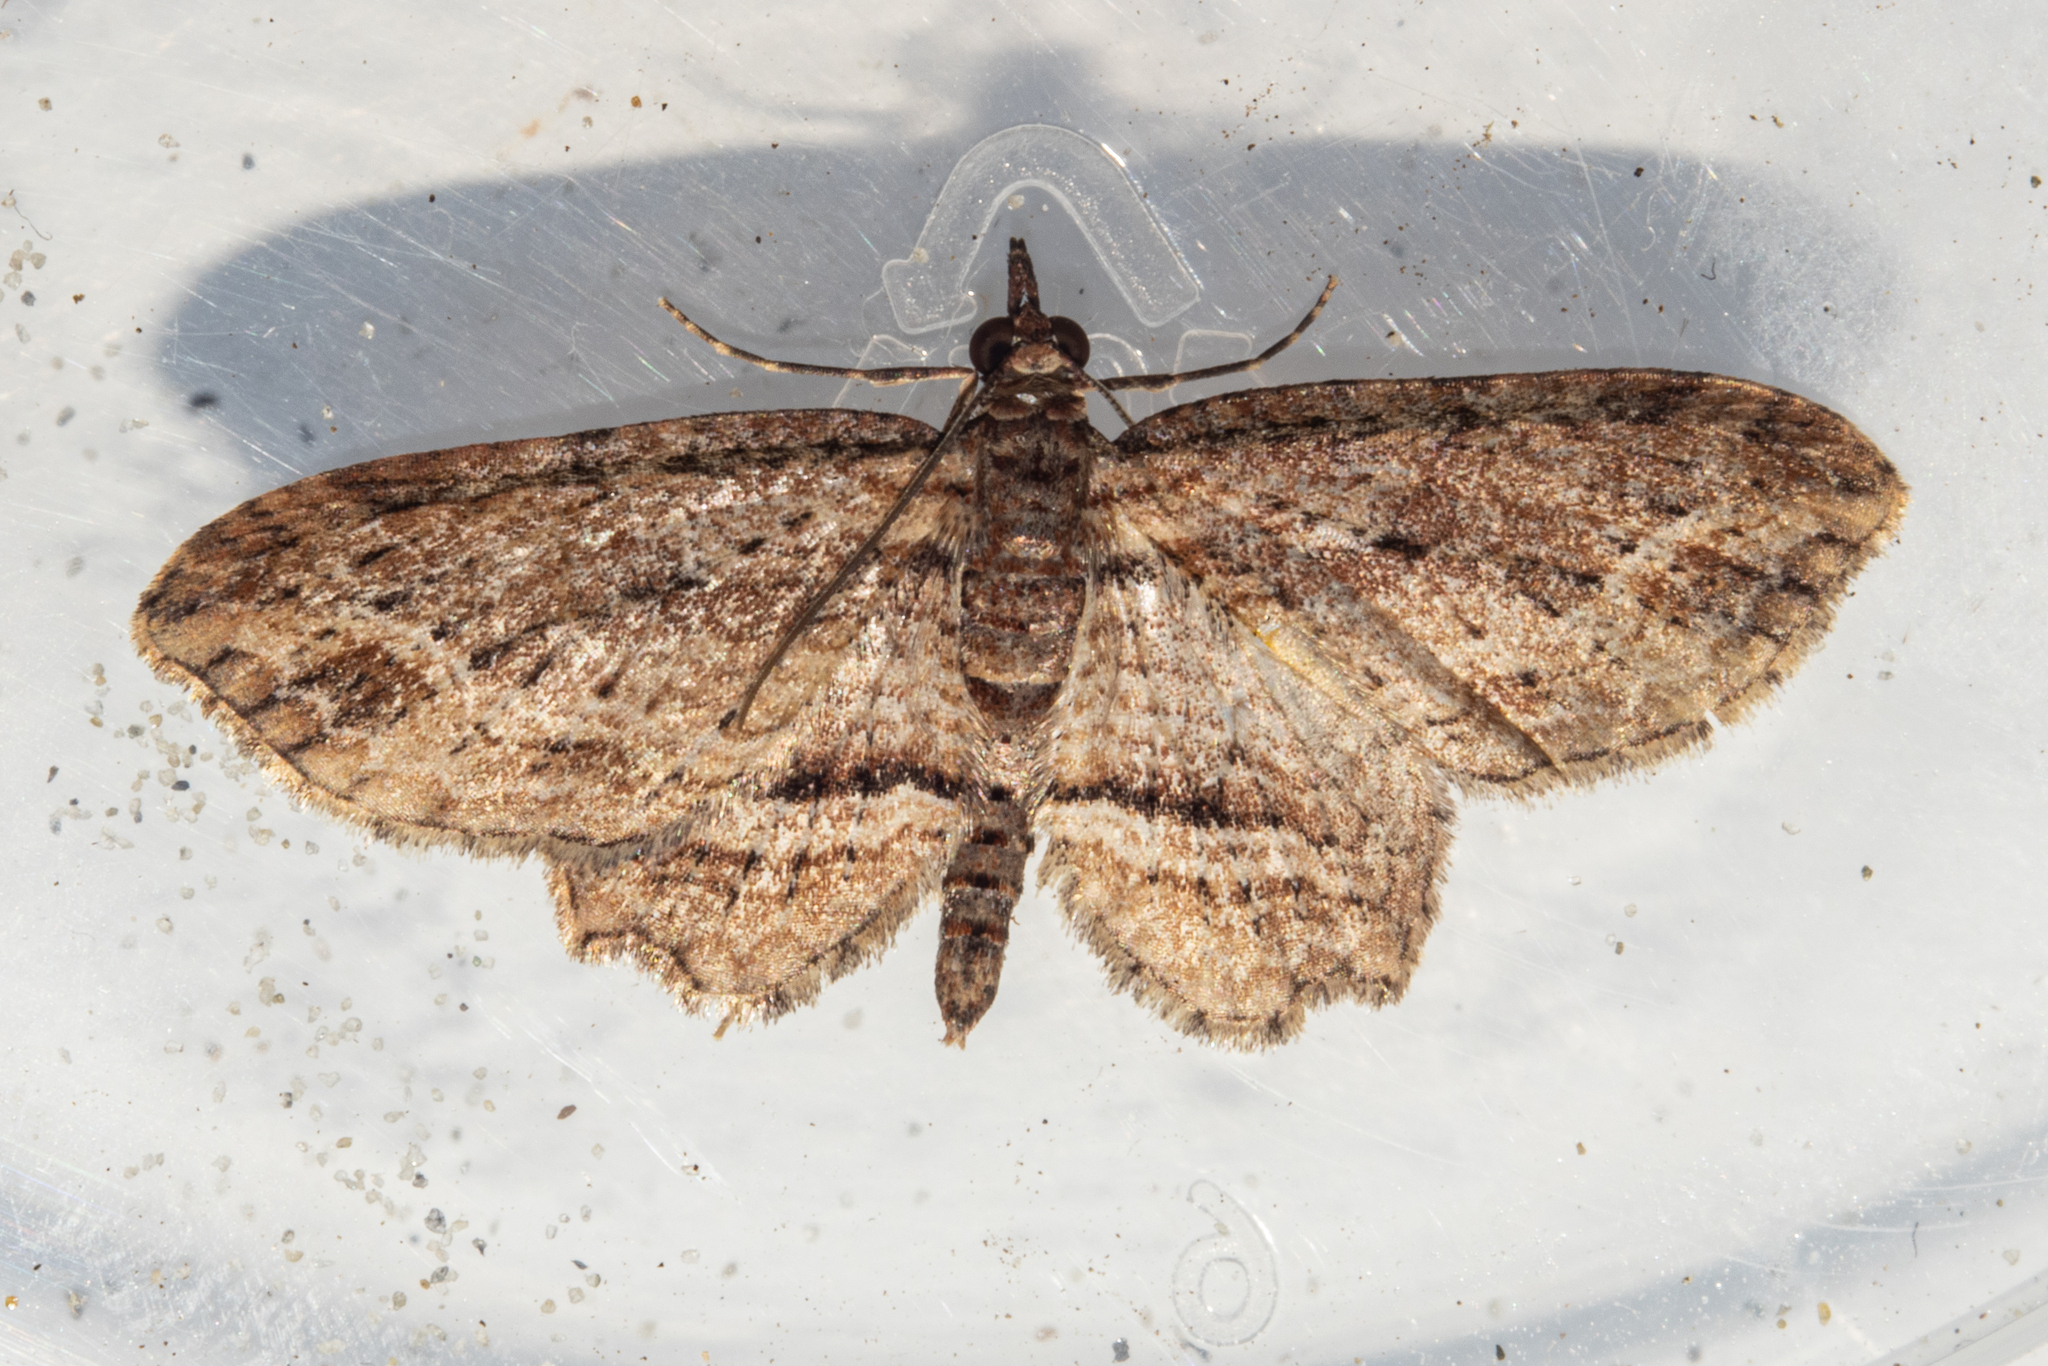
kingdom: Animalia
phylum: Arthropoda
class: Insecta
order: Lepidoptera
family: Geometridae
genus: Chloroclystis
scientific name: Chloroclystis filata
